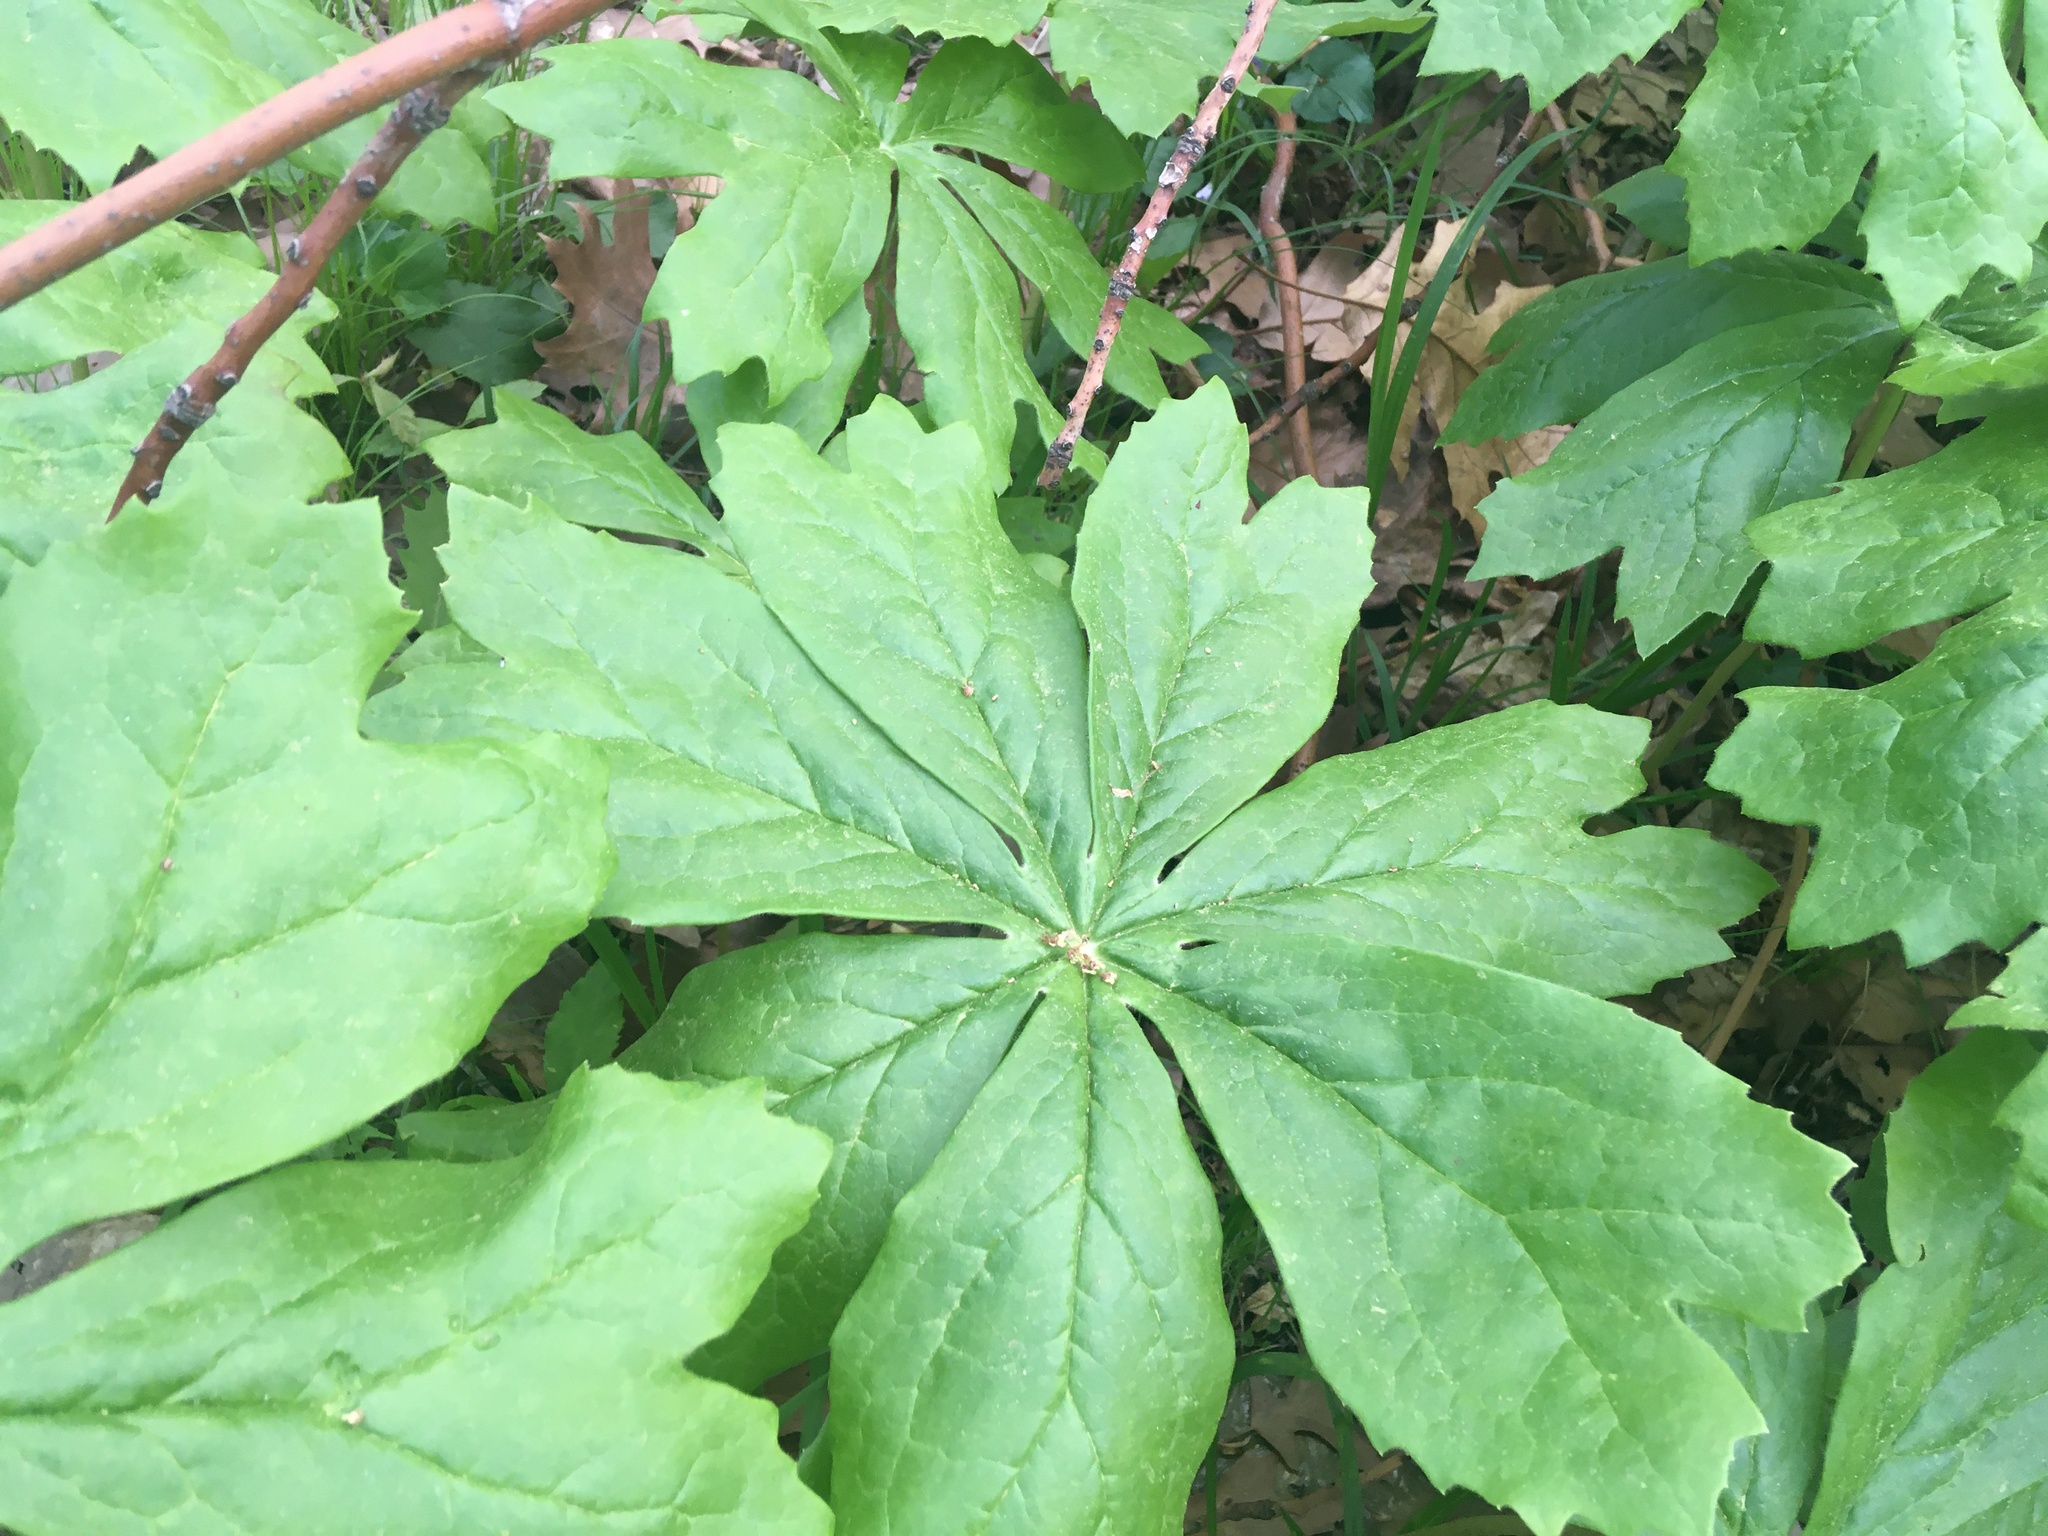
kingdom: Plantae
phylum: Tracheophyta
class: Magnoliopsida
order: Ranunculales
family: Berberidaceae
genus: Podophyllum
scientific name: Podophyllum peltatum
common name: Wild mandrake
